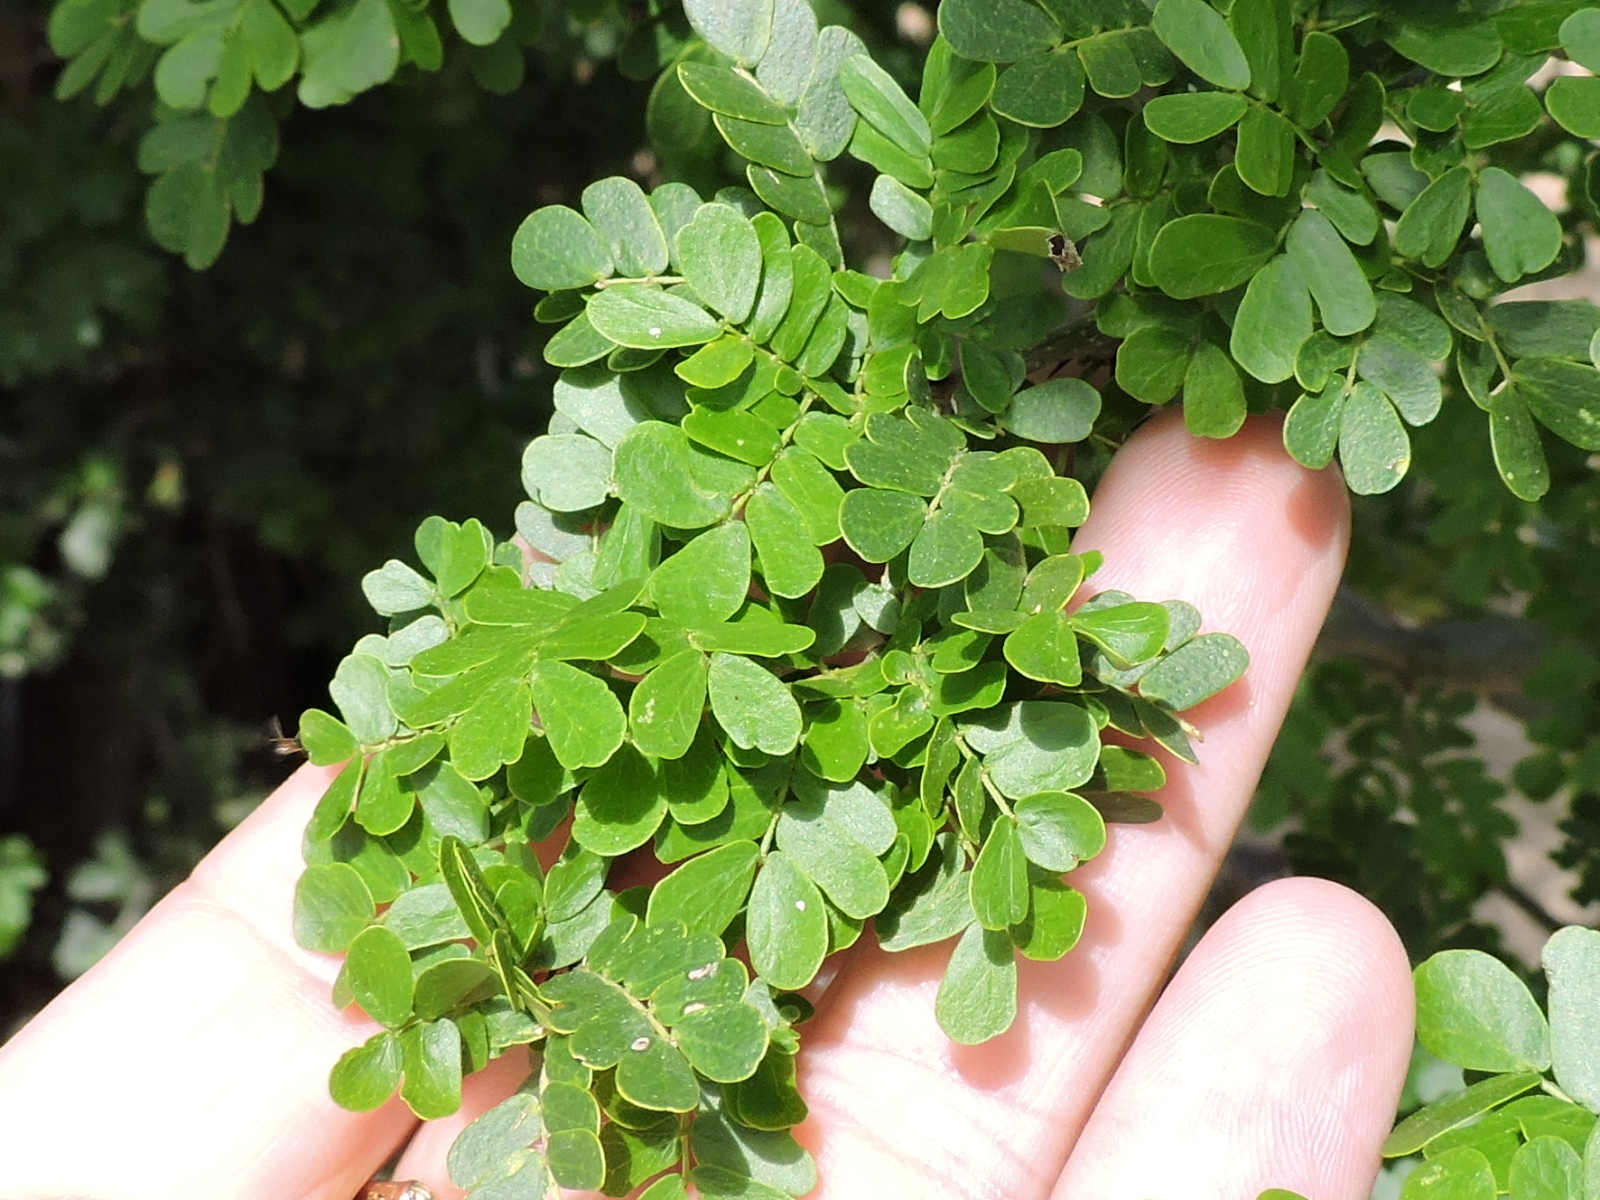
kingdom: Plantae
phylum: Tracheophyta
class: Magnoliopsida
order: Fabales
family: Fabaceae
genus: Ebenopsis
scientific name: Ebenopsis ebano
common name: Ebony blackbead
